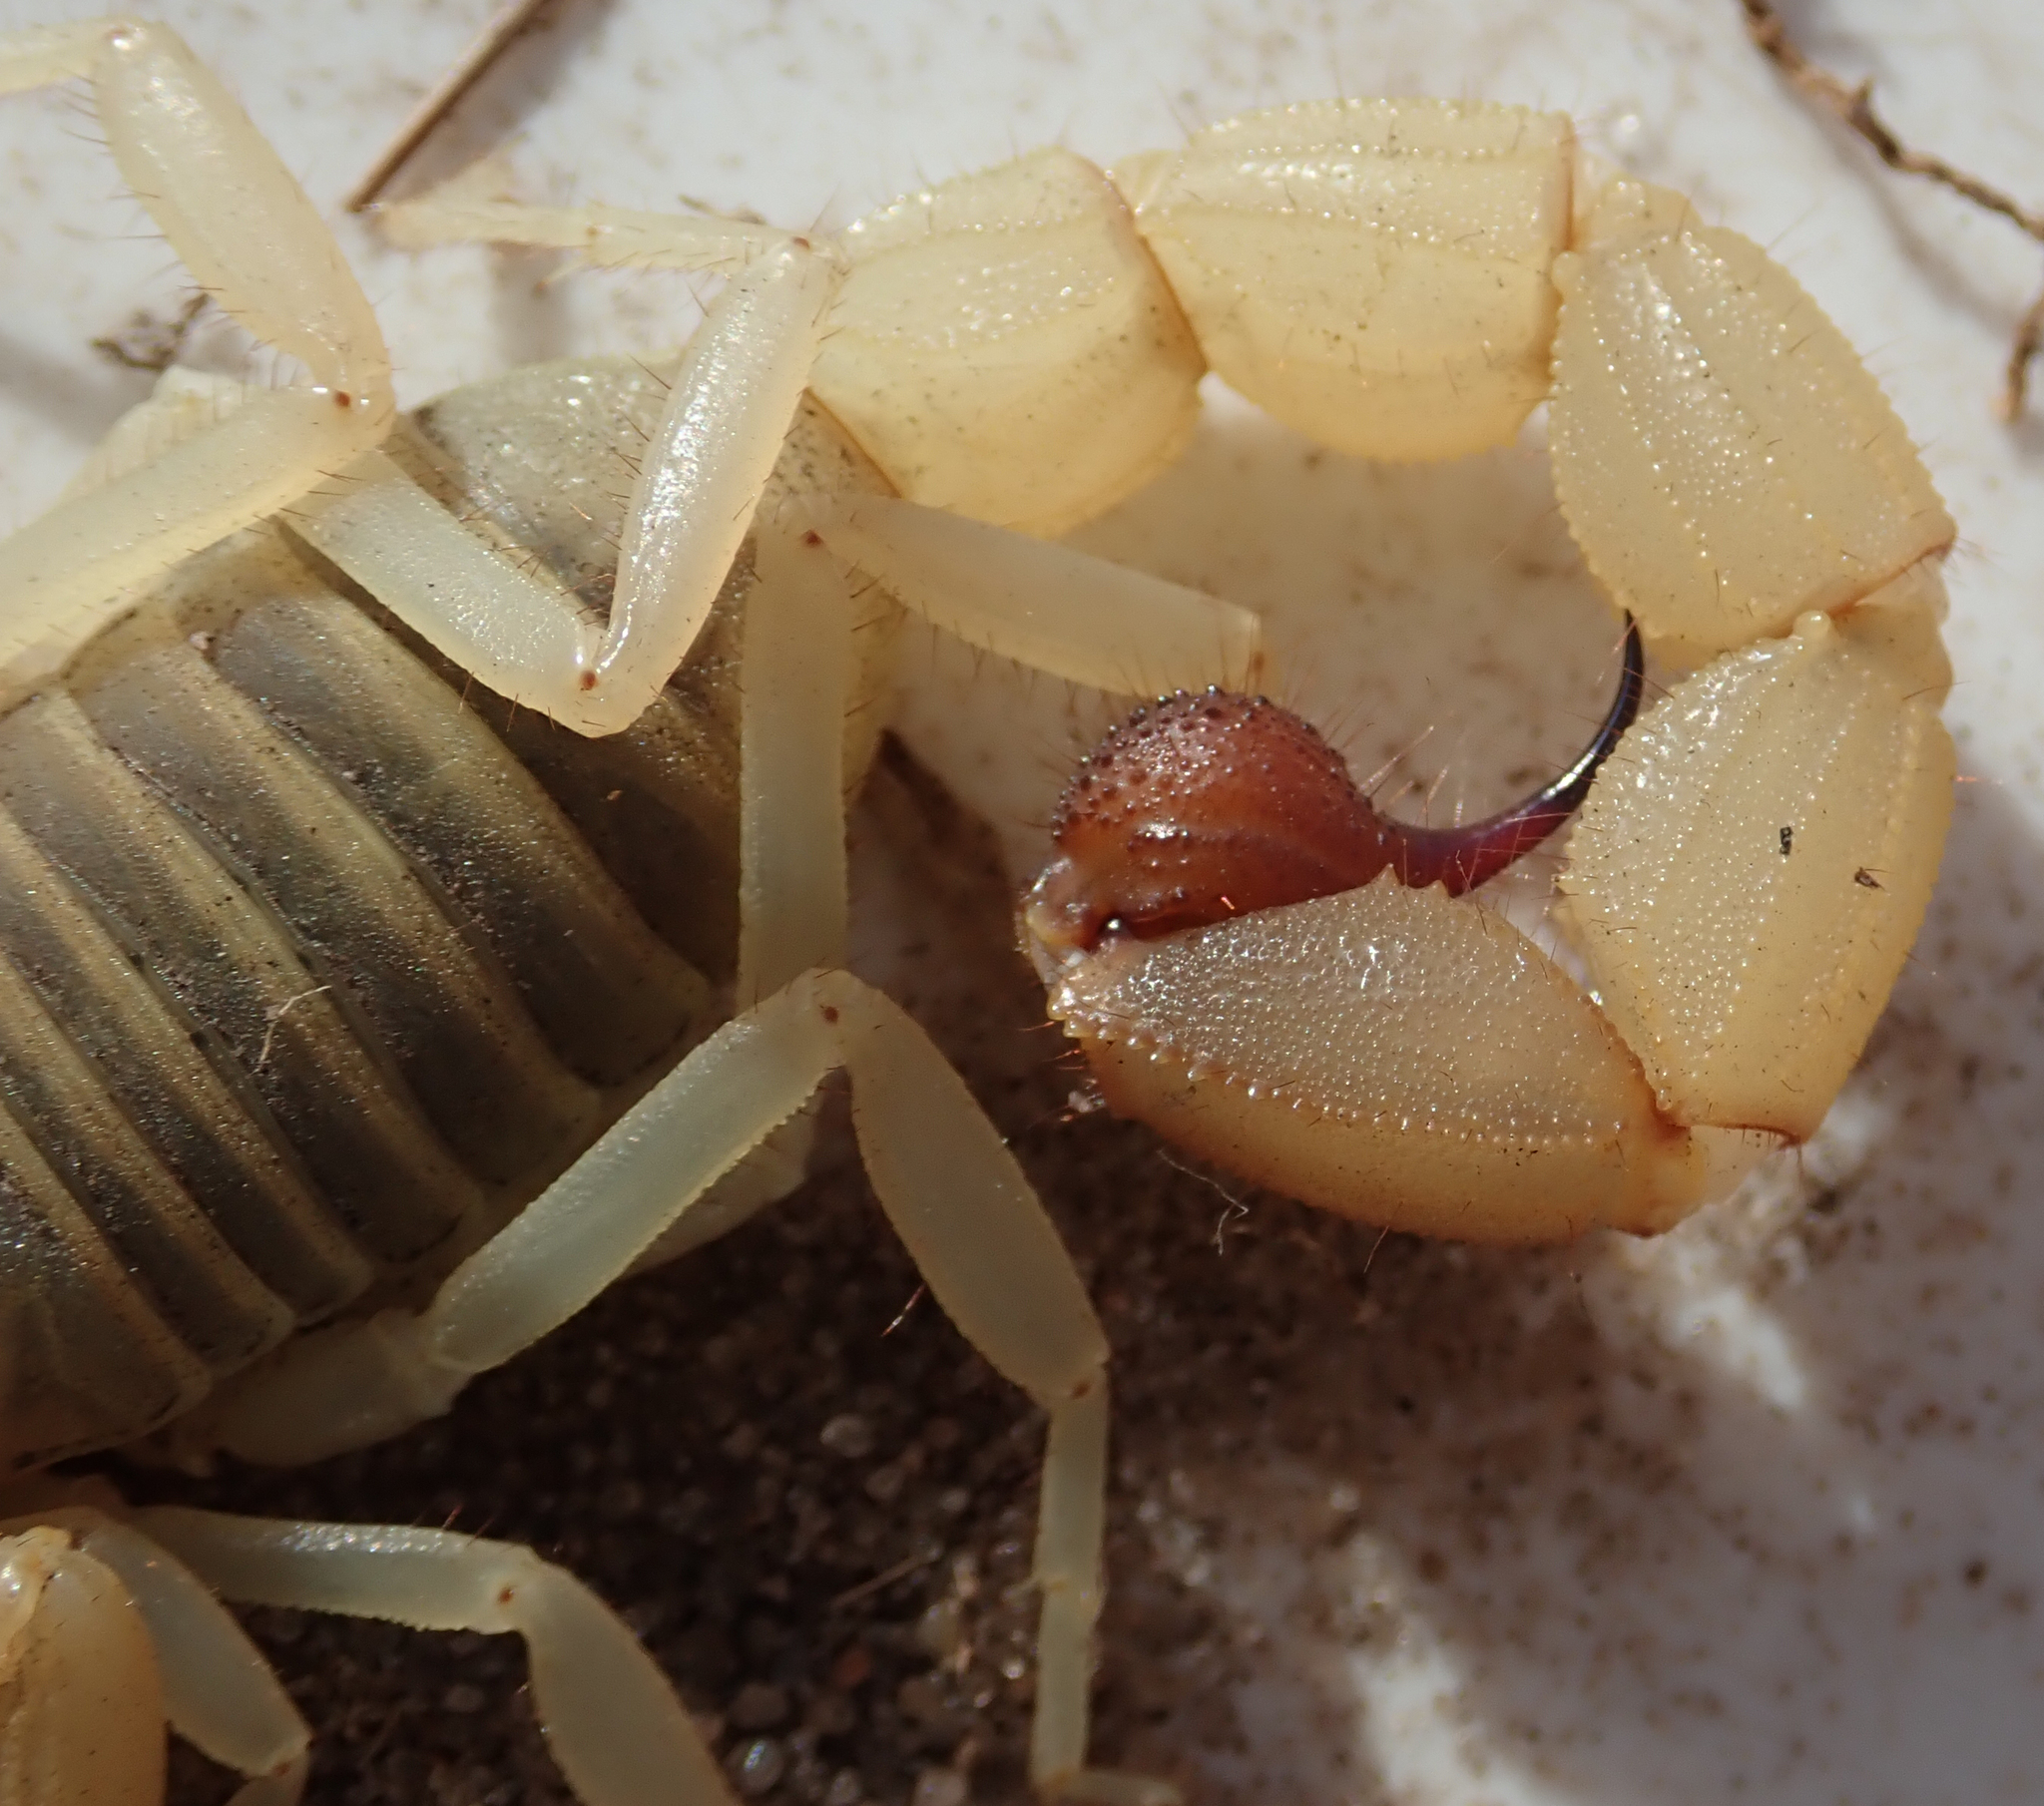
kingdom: Animalia
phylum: Arthropoda
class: Arachnida
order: Scorpiones
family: Buthidae
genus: Parabuthus
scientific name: Parabuthus raudus
